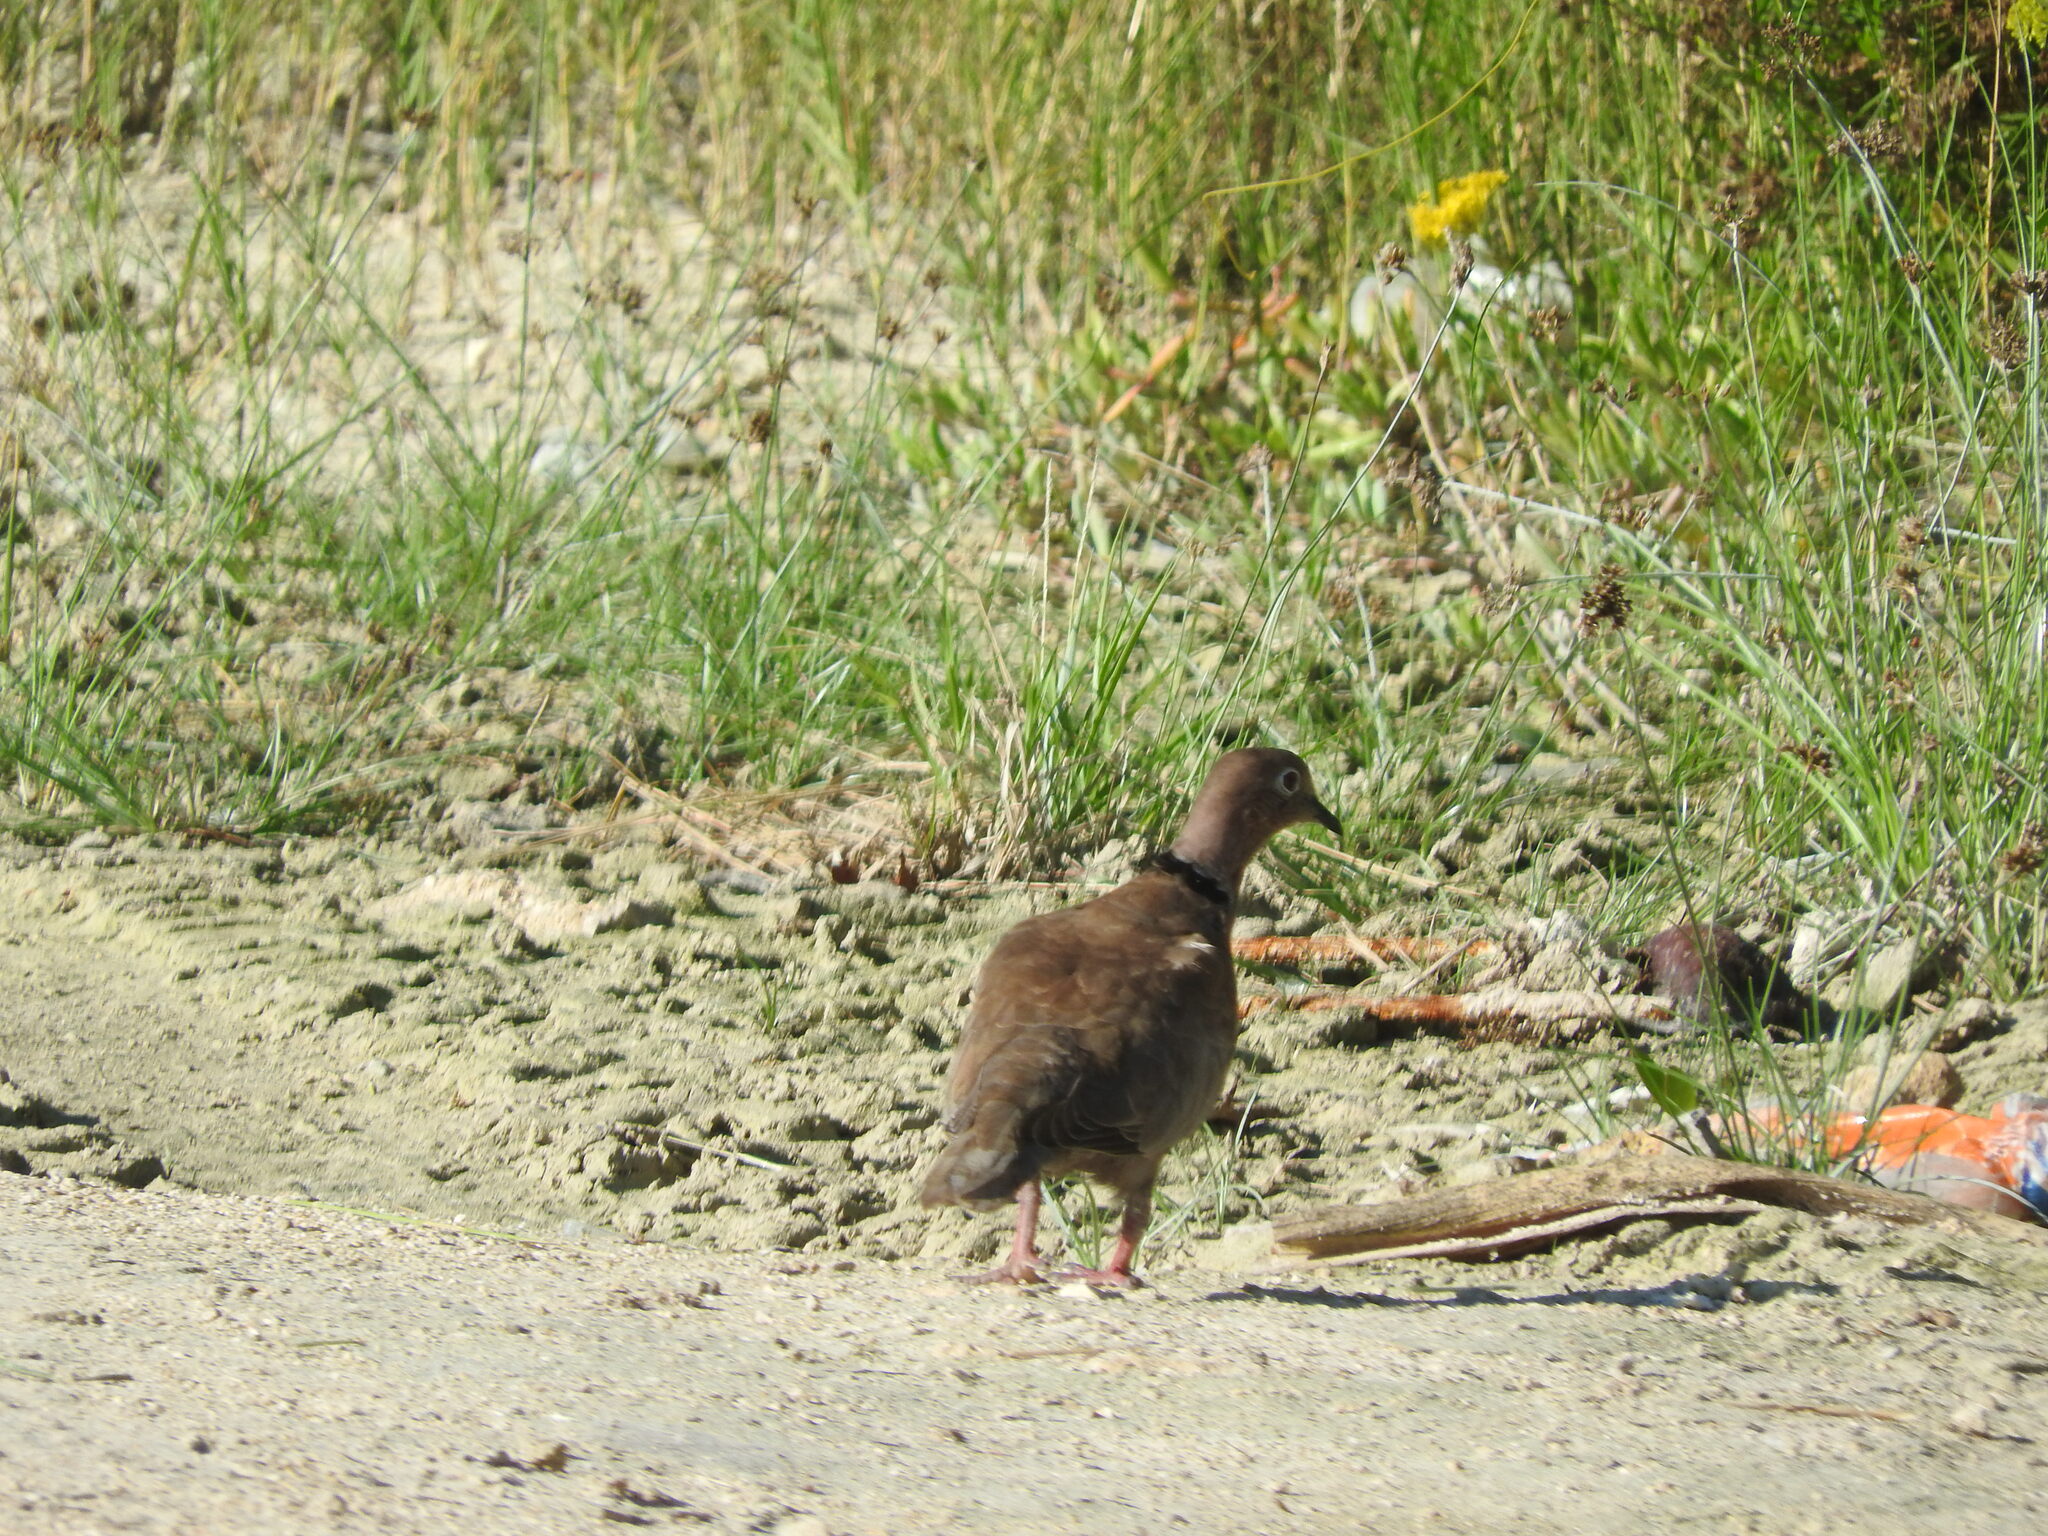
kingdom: Animalia
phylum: Chordata
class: Aves
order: Columbiformes
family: Columbidae
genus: Streptopelia
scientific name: Streptopelia decaocto
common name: Eurasian collared dove
